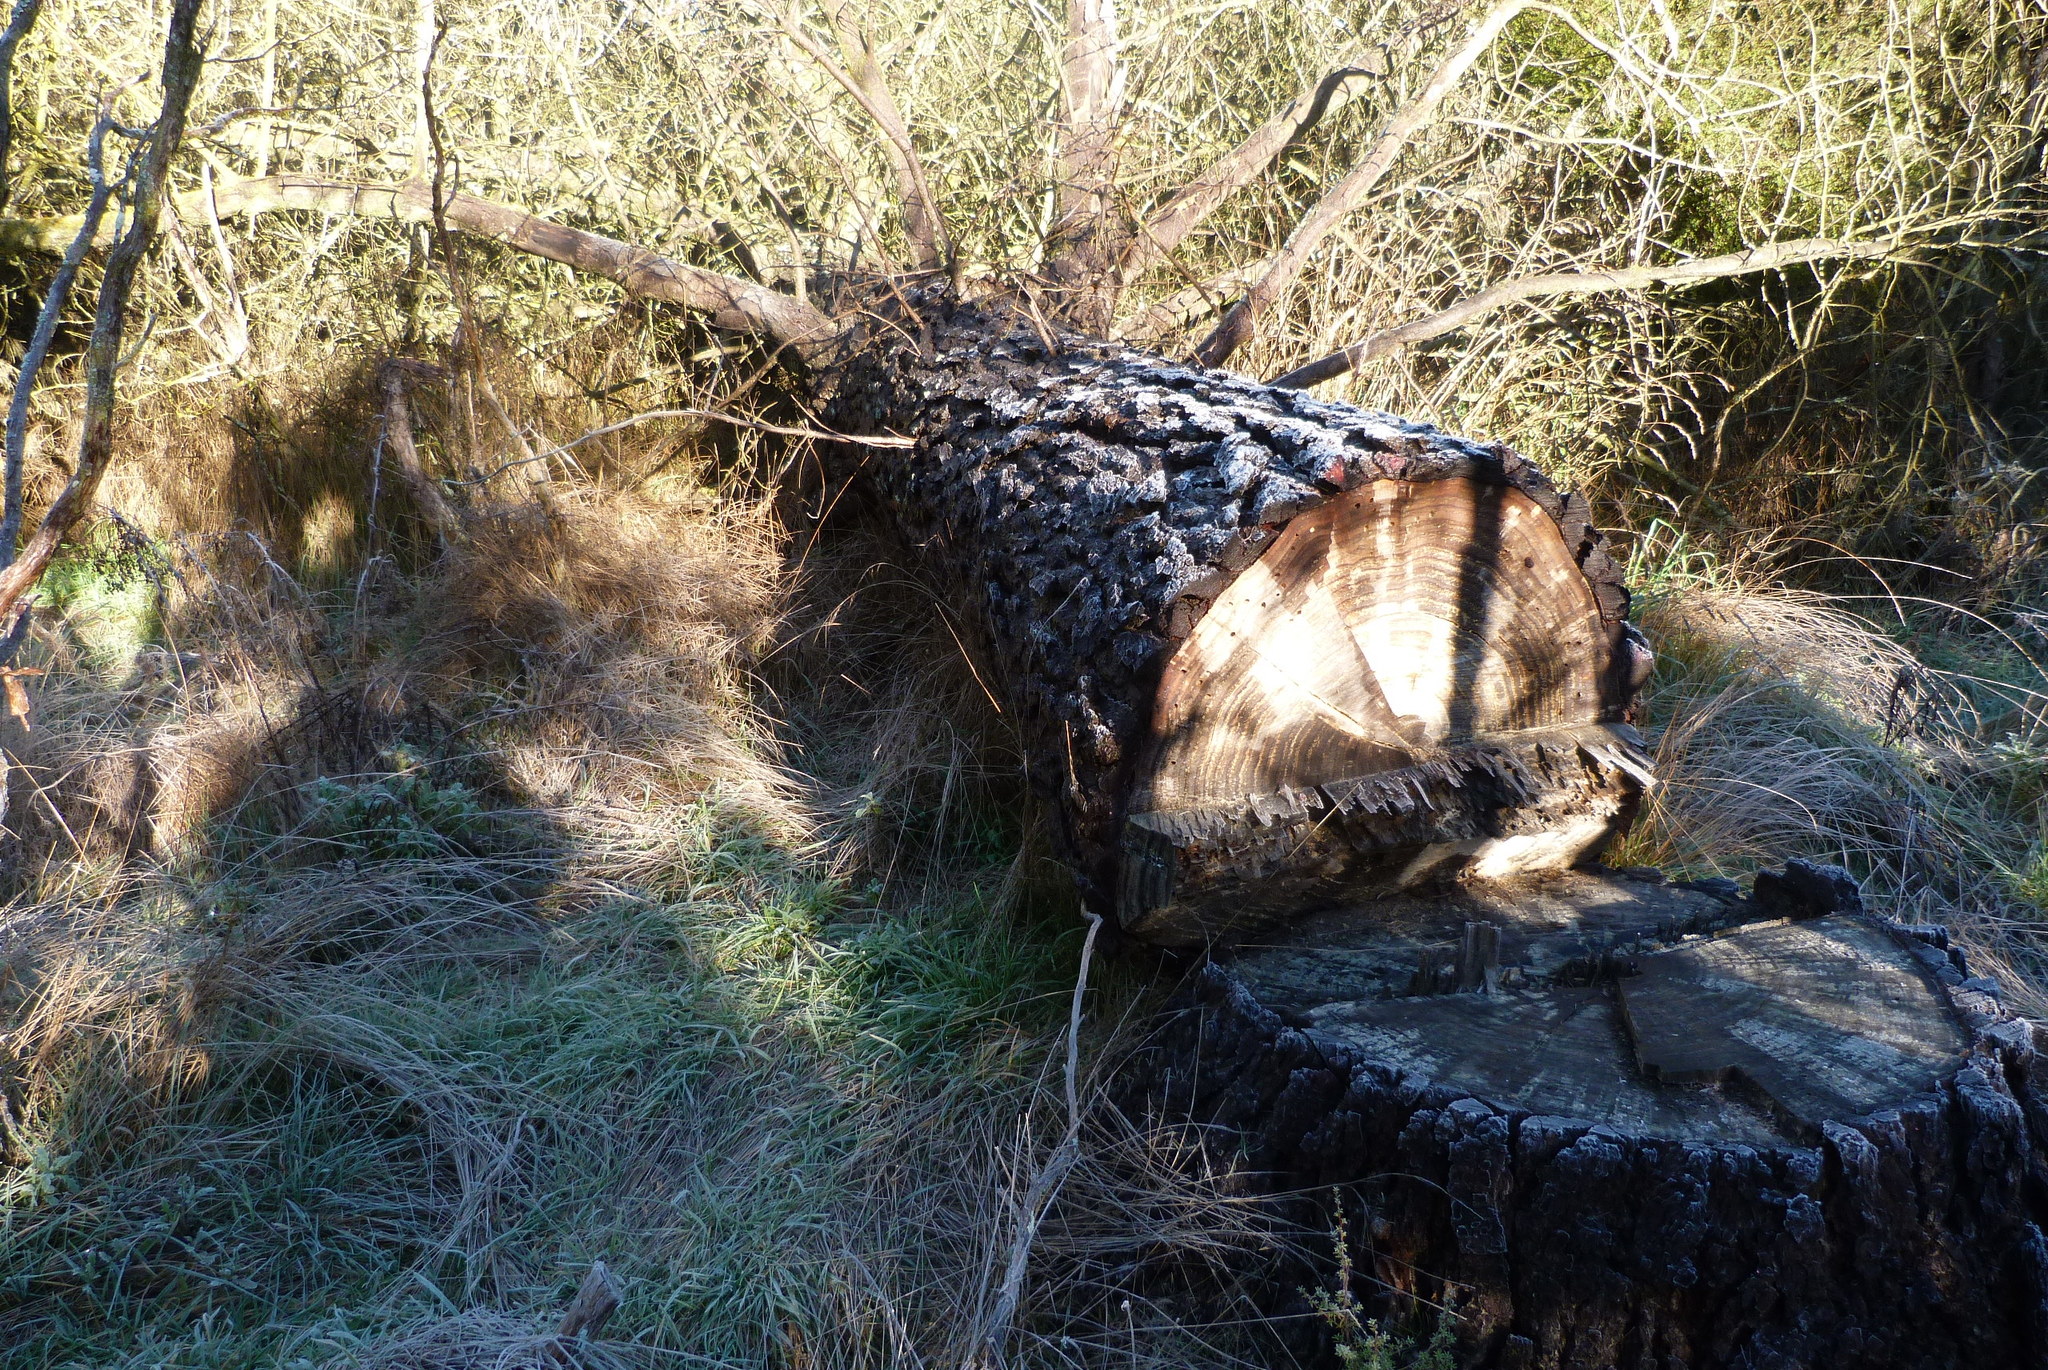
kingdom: Plantae
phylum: Tracheophyta
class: Pinopsida
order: Pinales
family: Pinaceae
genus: Pinus
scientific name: Pinus radiata
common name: Monterey pine
